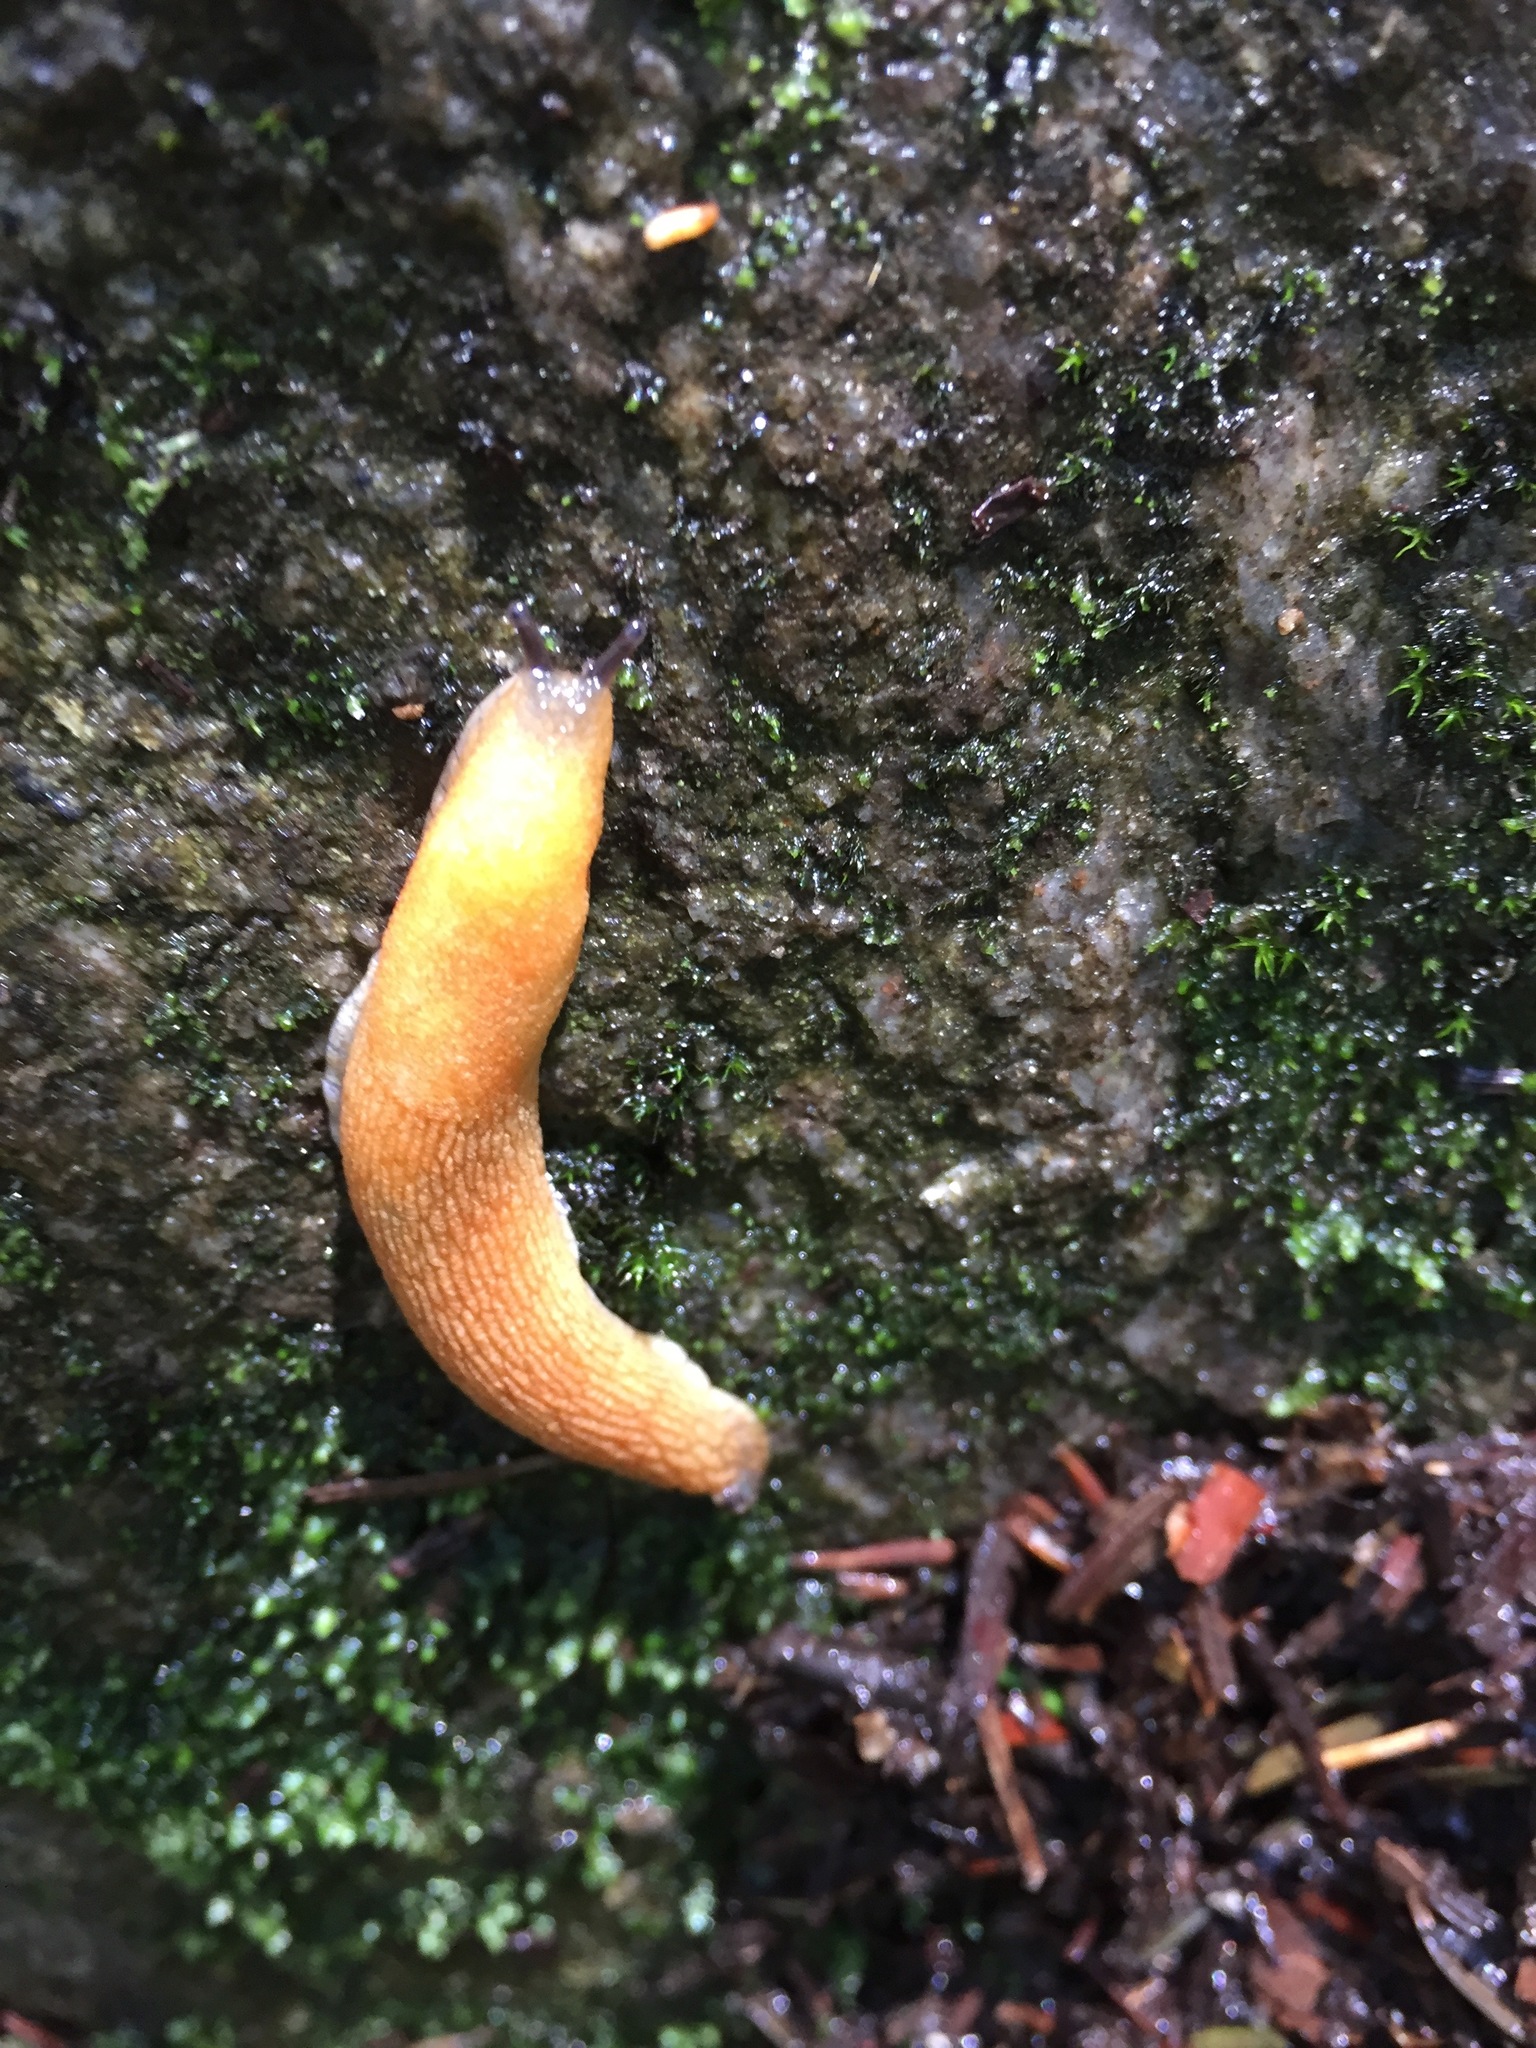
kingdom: Animalia
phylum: Mollusca
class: Gastropoda
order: Stylommatophora
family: Arionidae
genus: Arion
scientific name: Arion subfuscus
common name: Dusky arion
